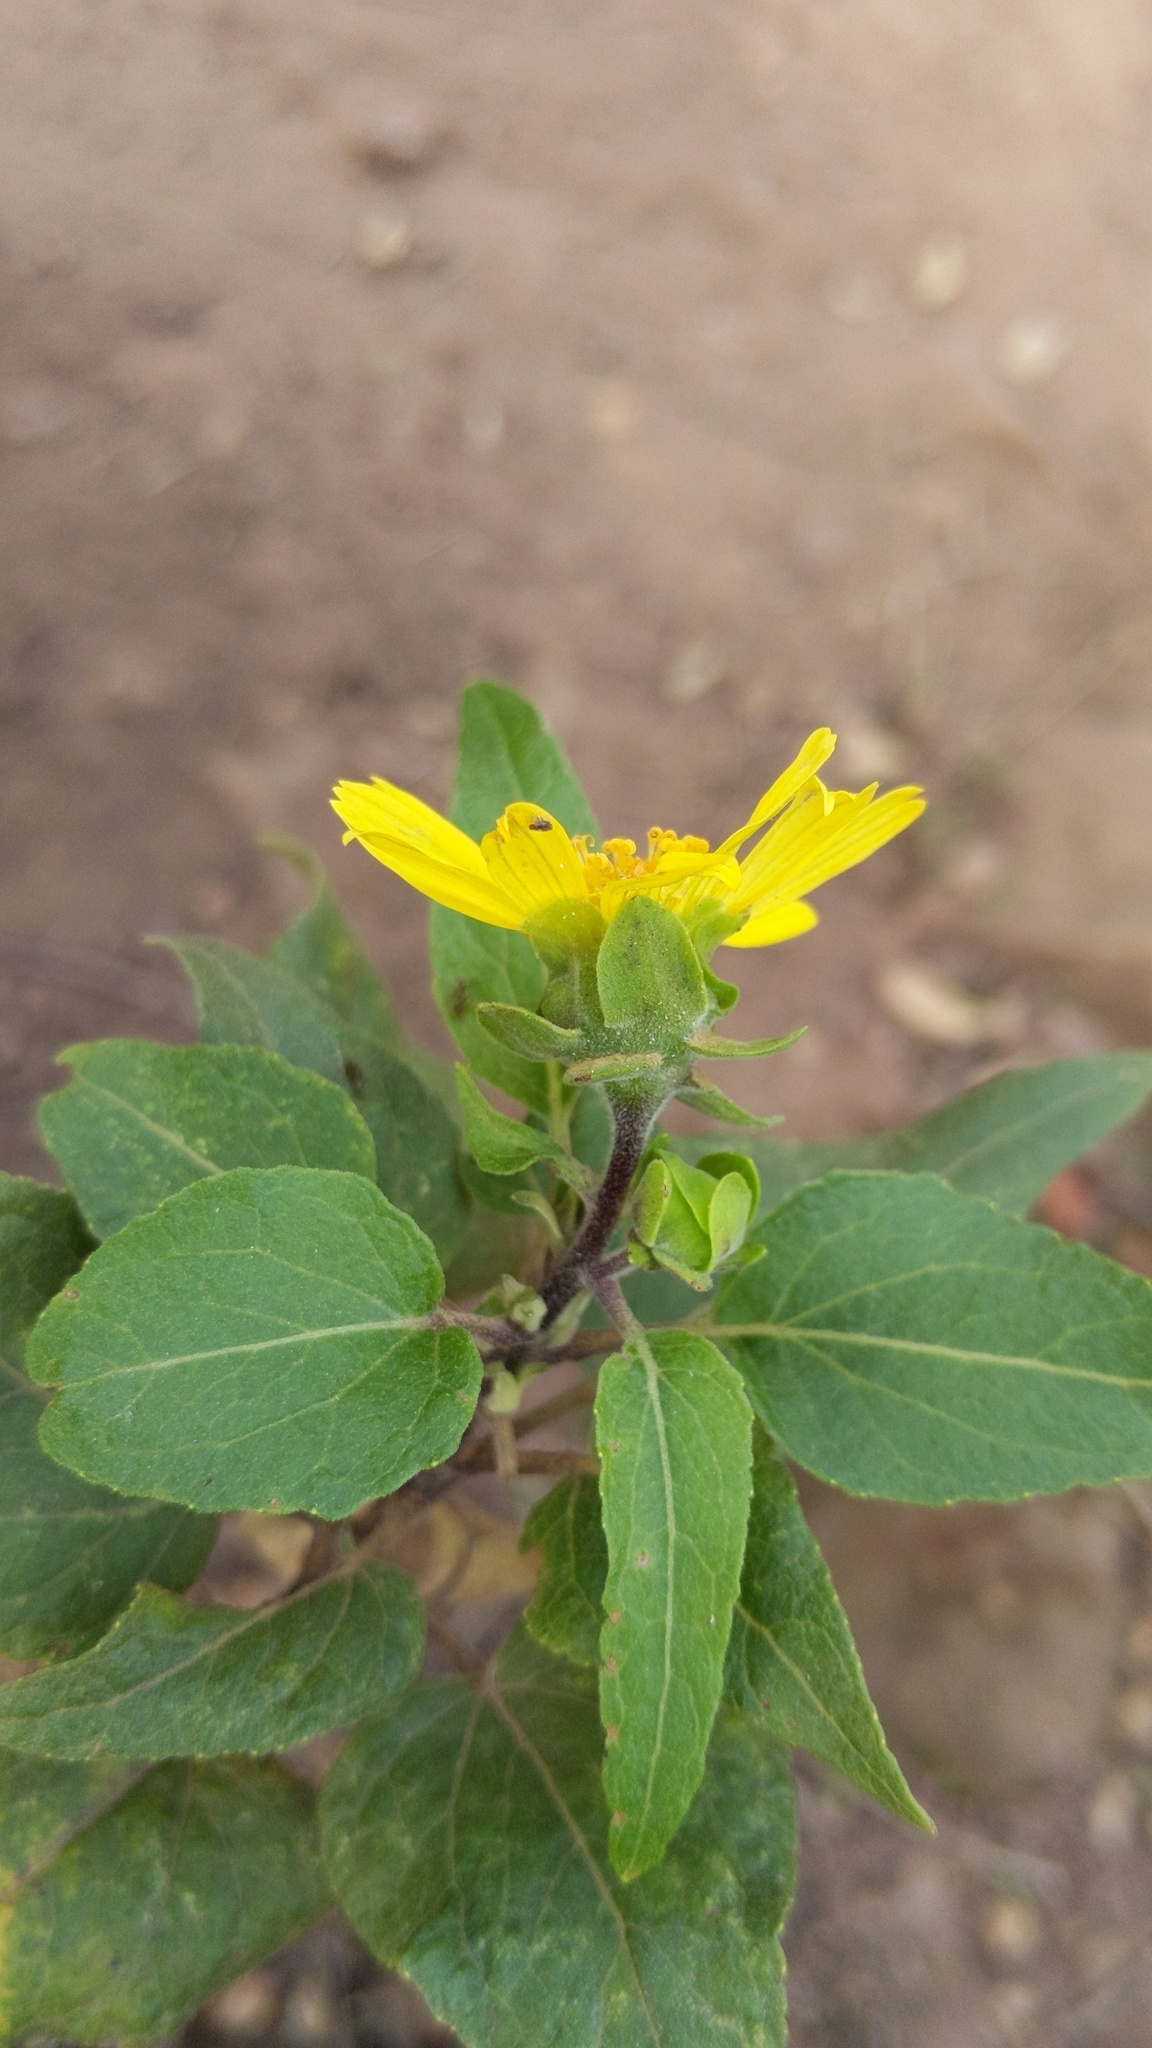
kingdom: Plantae
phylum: Tracheophyta
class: Magnoliopsida
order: Asterales
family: Asteraceae
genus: Venegasia
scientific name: Venegasia carpesioides
